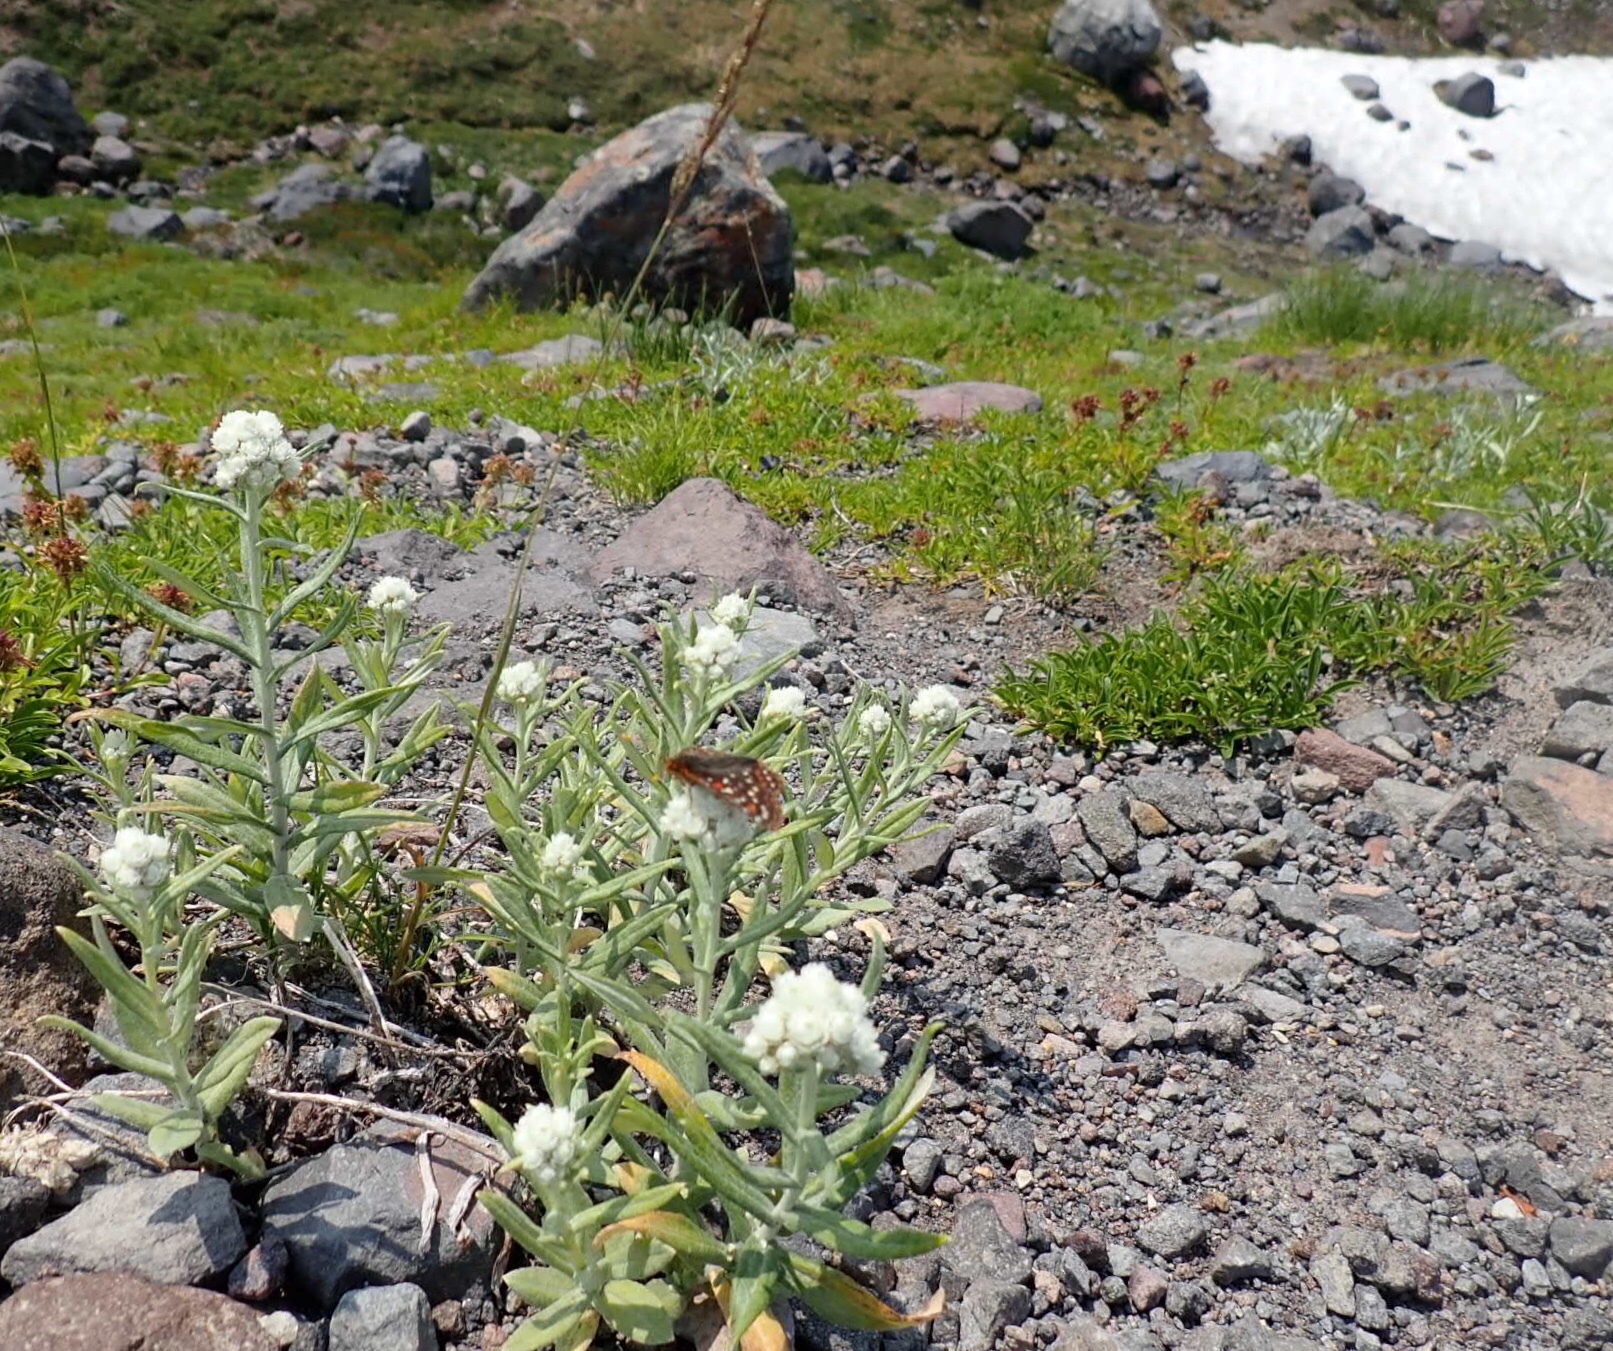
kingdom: Plantae
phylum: Tracheophyta
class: Magnoliopsida
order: Asterales
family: Asteraceae
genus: Anaphalis
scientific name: Anaphalis margaritacea
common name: Pearly everlasting
